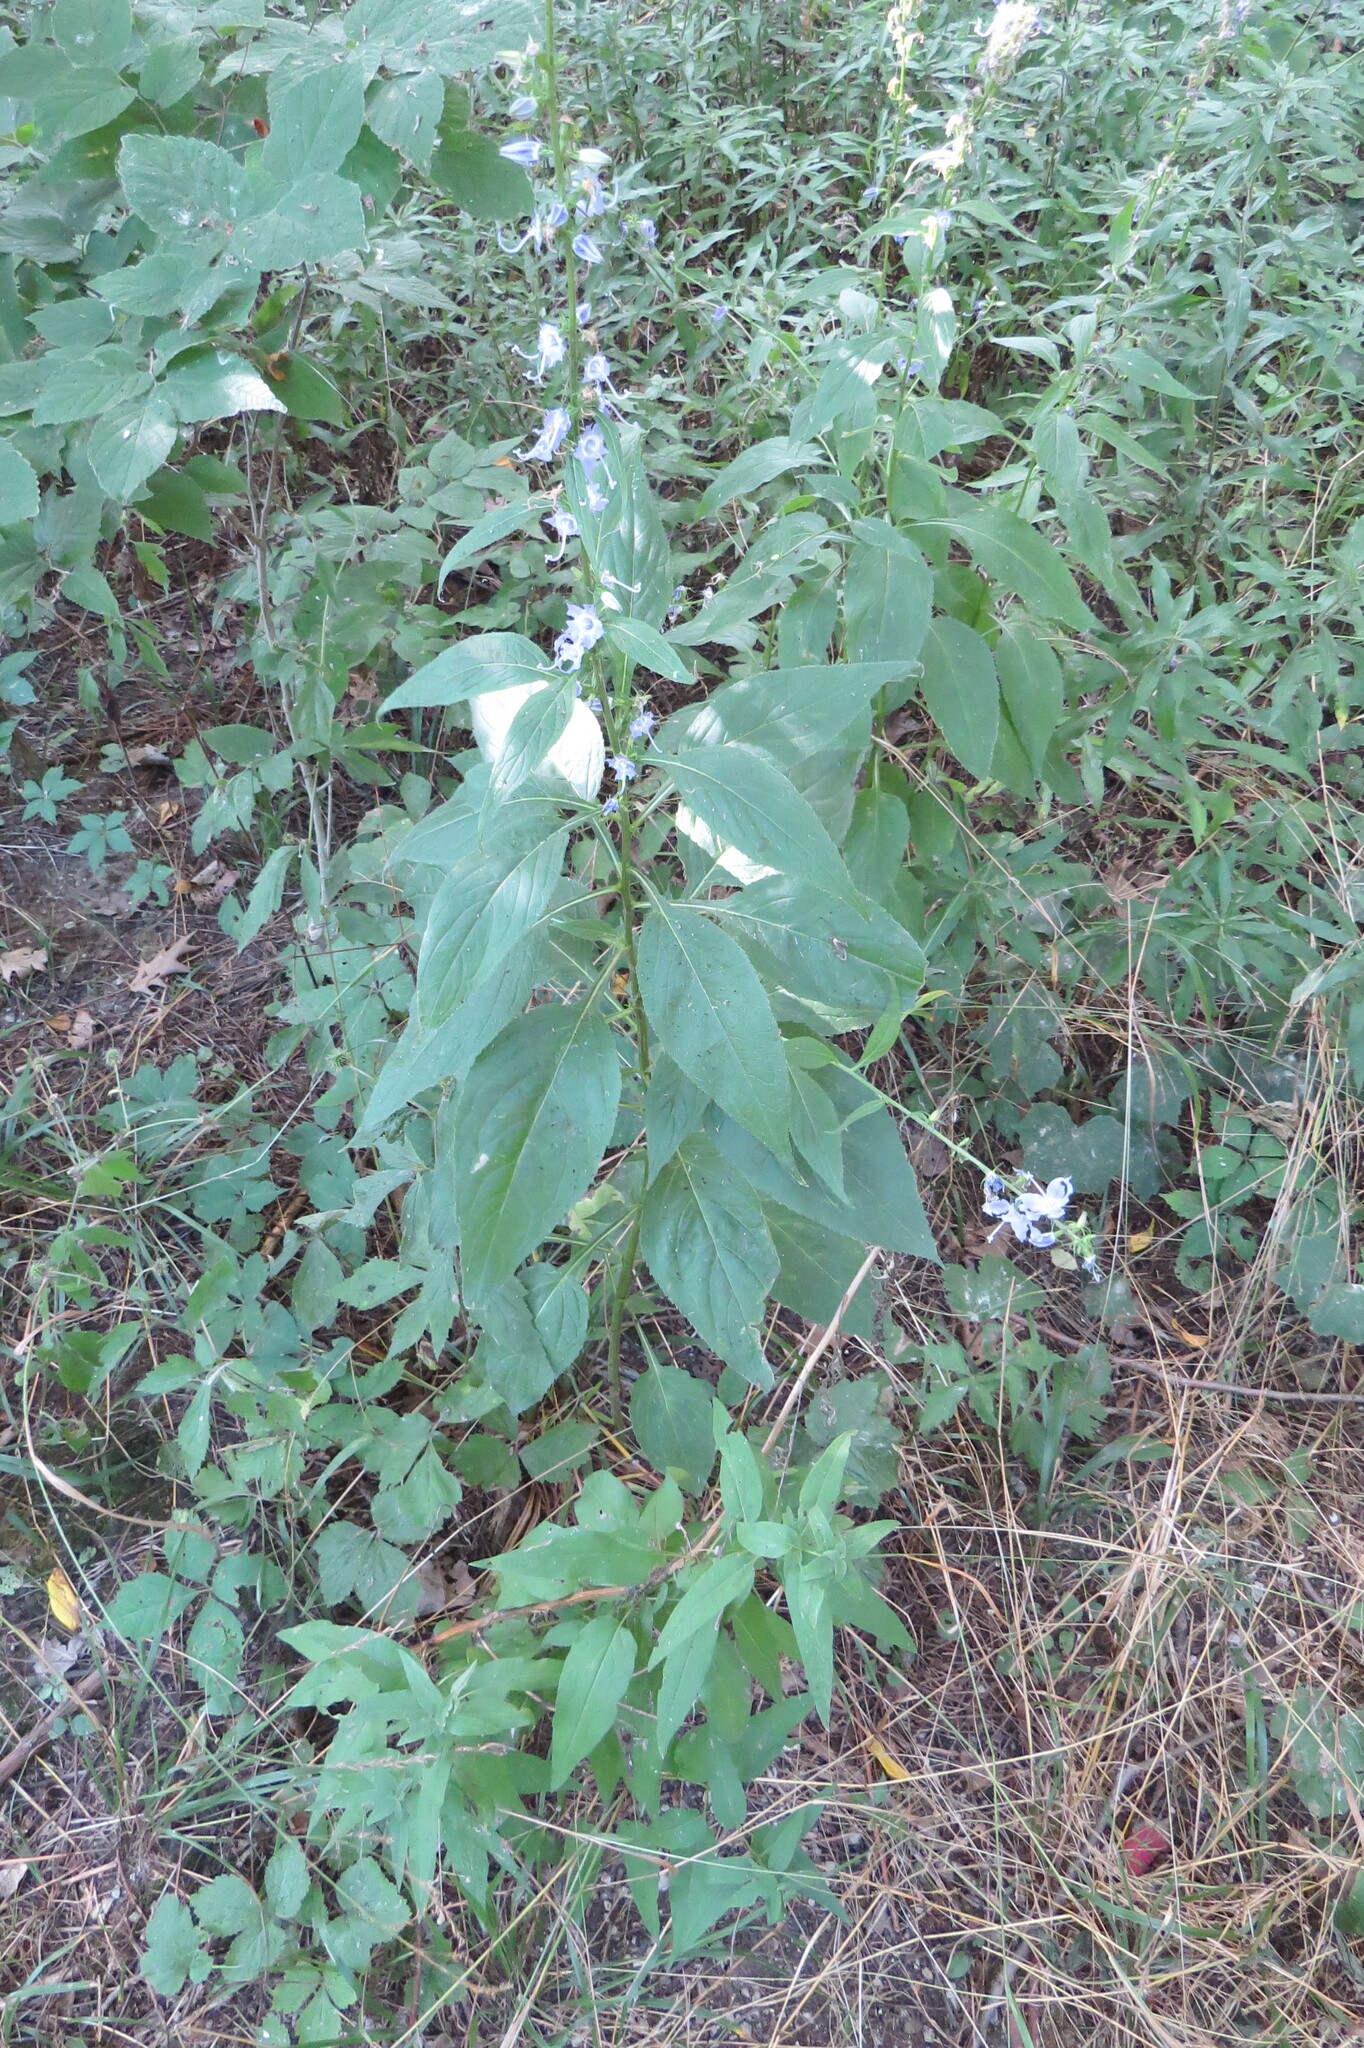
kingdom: Plantae
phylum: Tracheophyta
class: Magnoliopsida
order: Asterales
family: Campanulaceae
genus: Campanulastrum
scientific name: Campanulastrum americanum
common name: American bellflower
